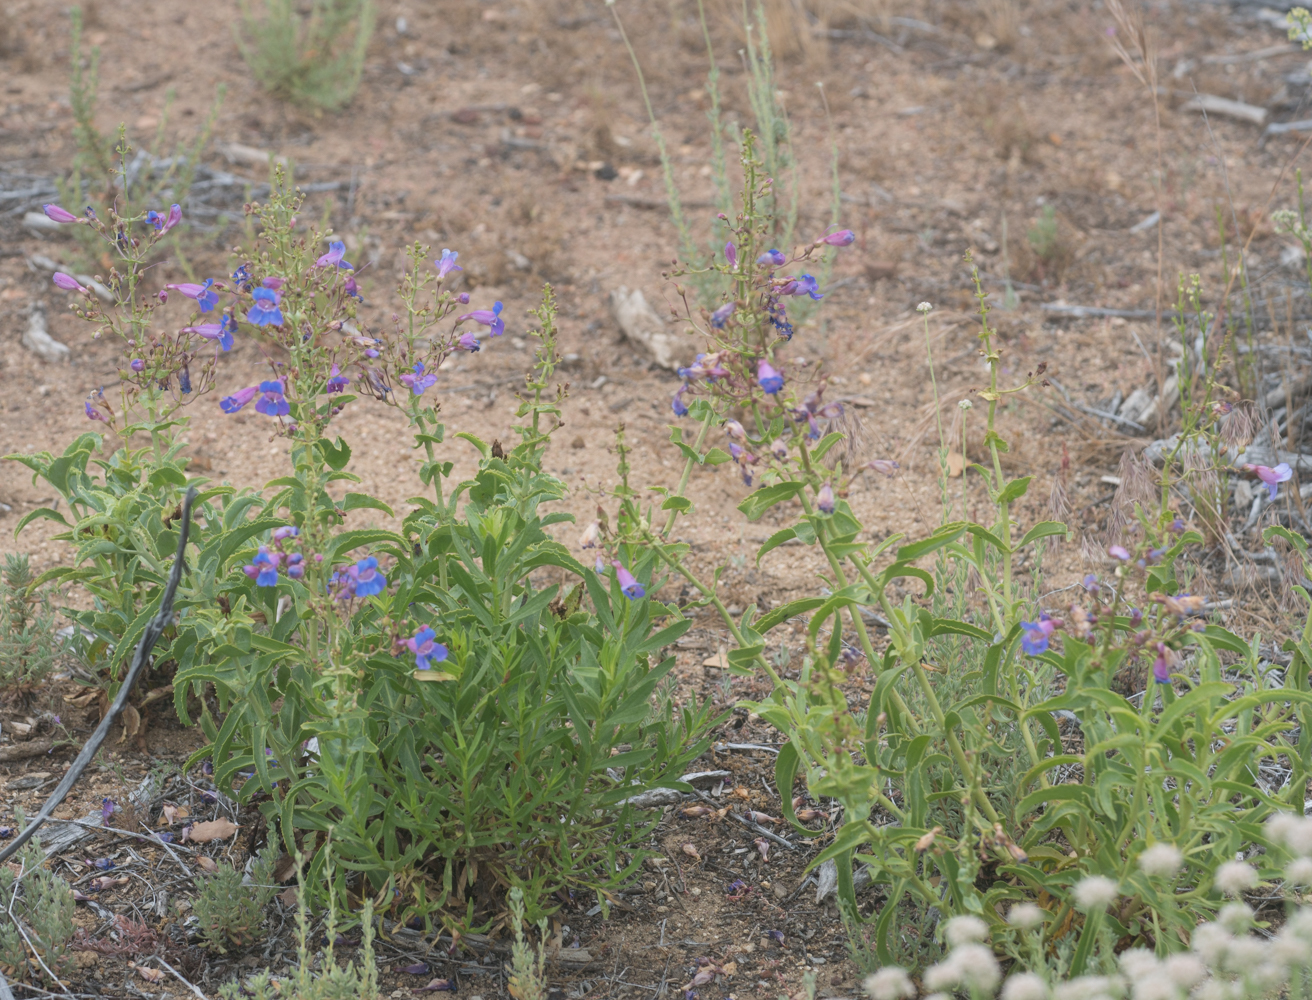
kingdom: Plantae
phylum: Tracheophyta
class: Magnoliopsida
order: Lamiales
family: Plantaginaceae
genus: Penstemon
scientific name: Penstemon spectabilis
